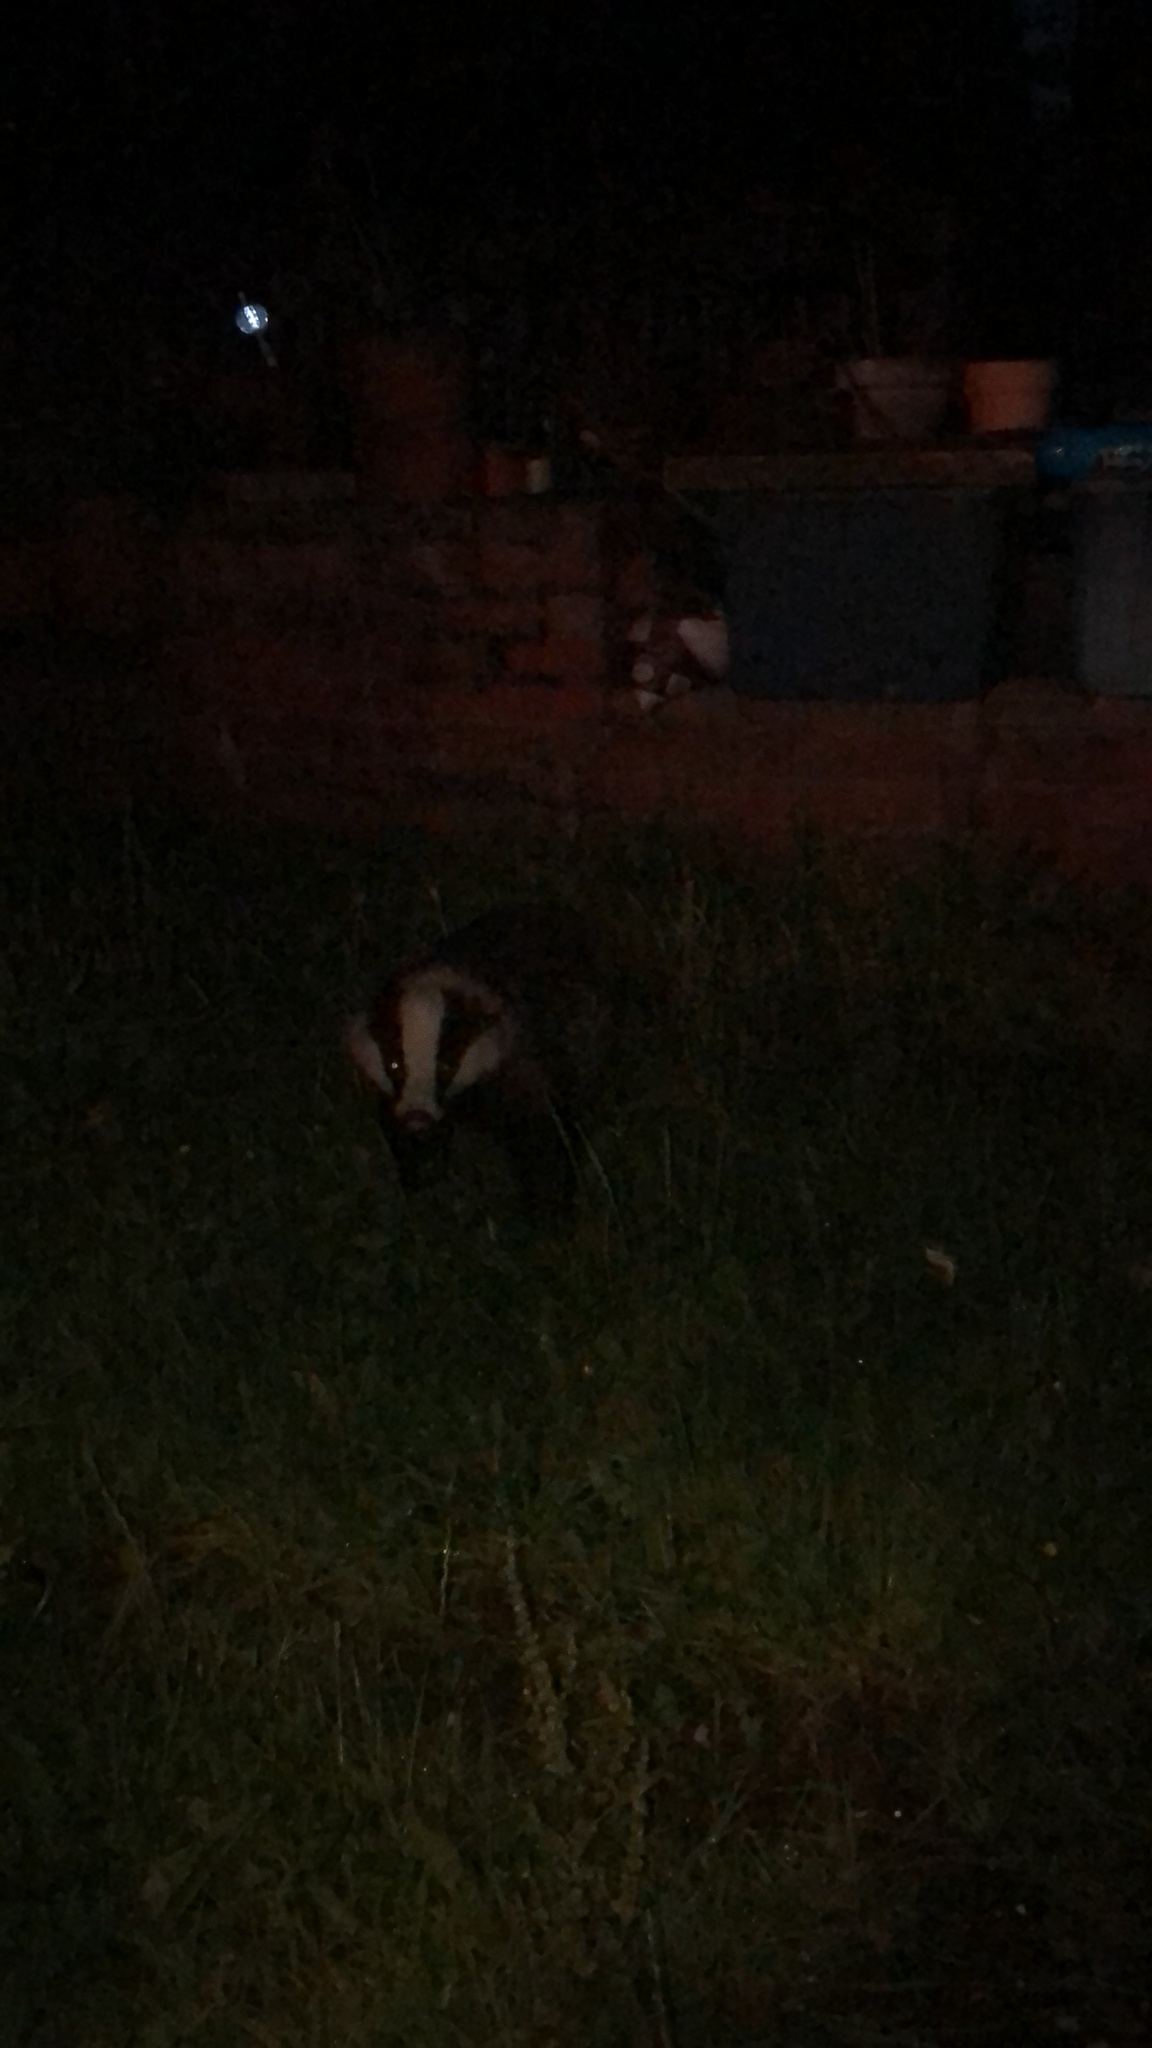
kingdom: Animalia
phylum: Chordata
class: Mammalia
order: Carnivora
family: Mustelidae
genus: Meles
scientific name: Meles meles
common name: Eurasian badger
